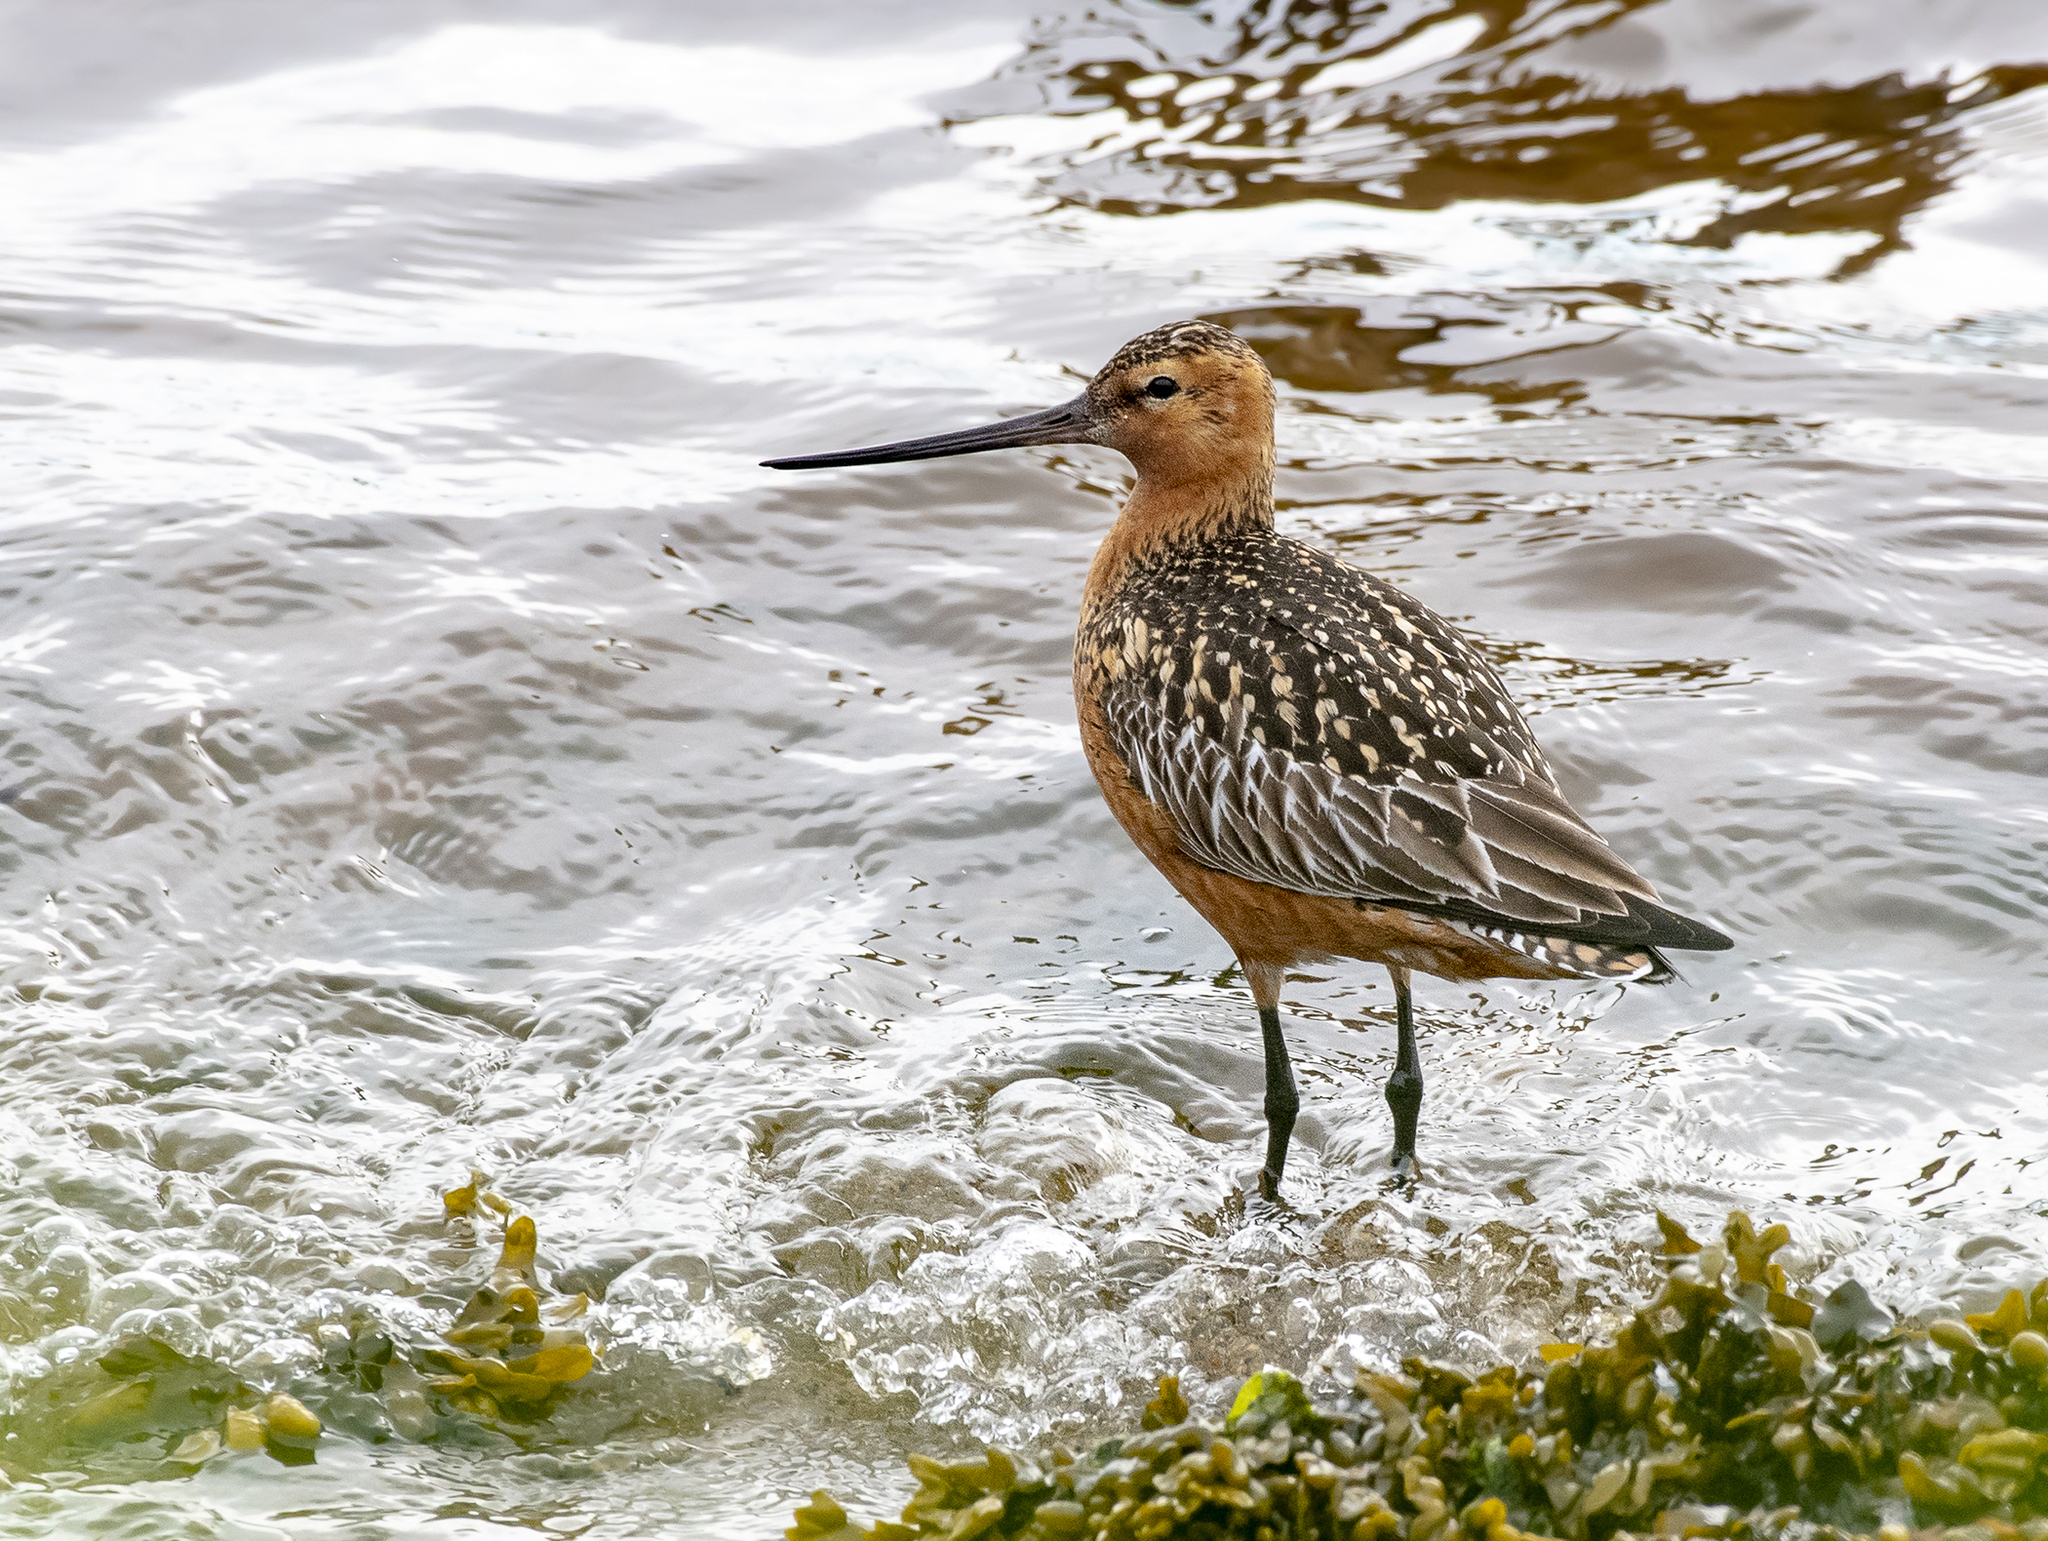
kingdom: Animalia
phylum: Chordata
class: Aves
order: Charadriiformes
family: Scolopacidae
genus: Limosa
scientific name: Limosa lapponica
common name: Bar-tailed godwit
